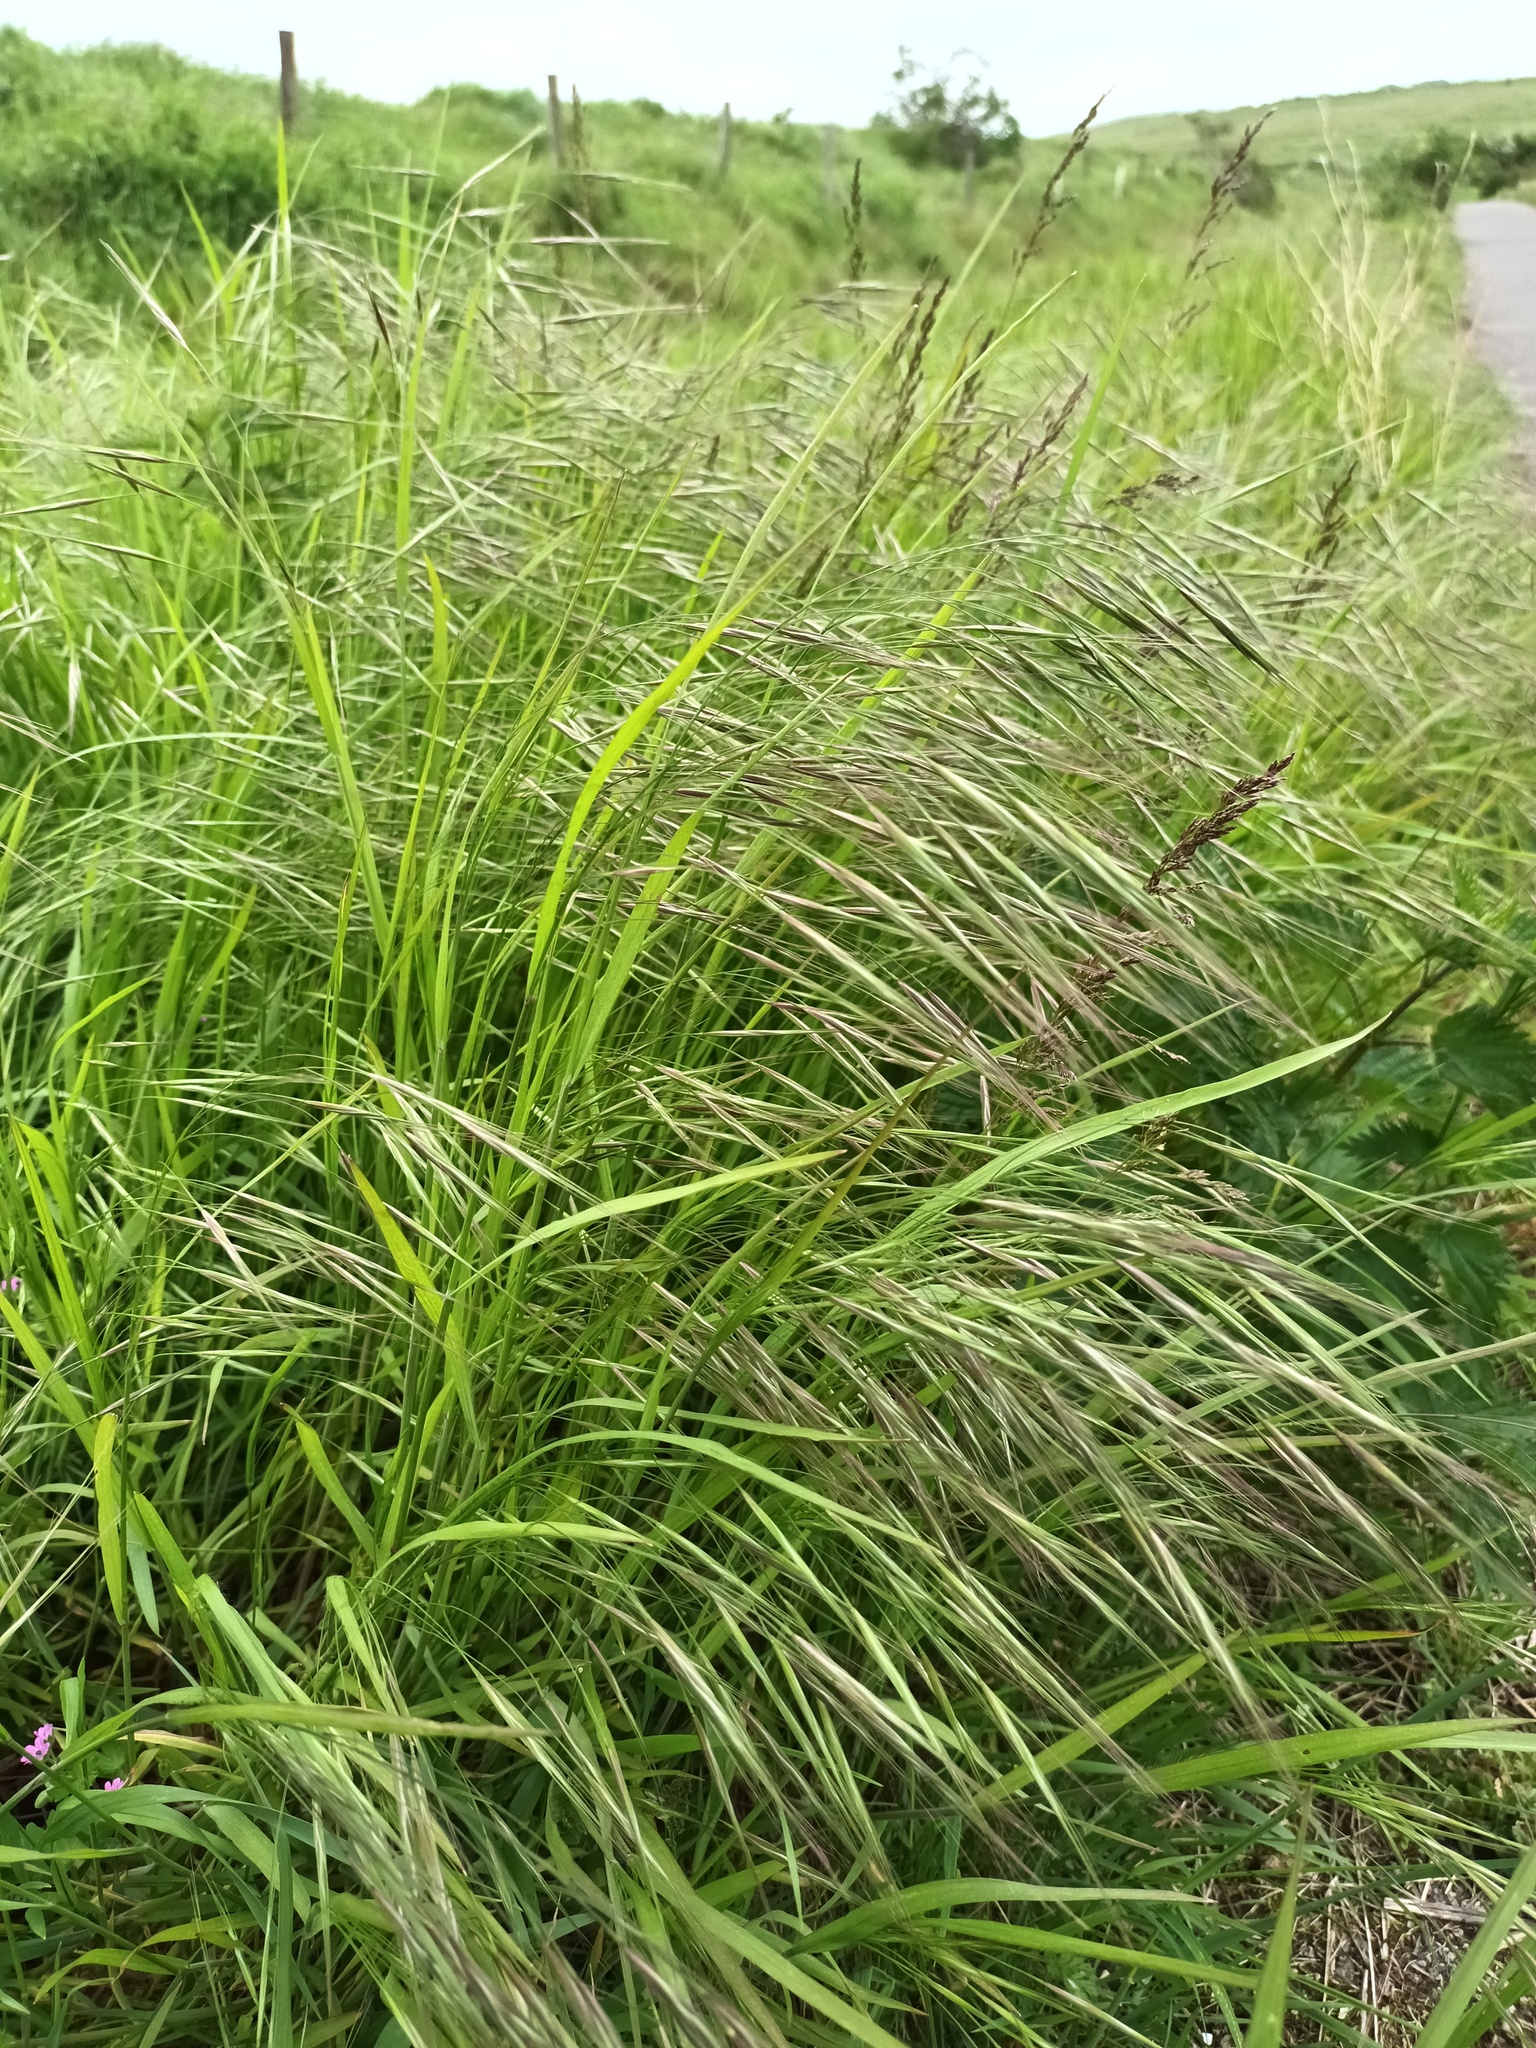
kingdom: Plantae
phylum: Tracheophyta
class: Liliopsida
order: Poales
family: Poaceae
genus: Bromus
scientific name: Bromus sterilis
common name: Poverty brome
